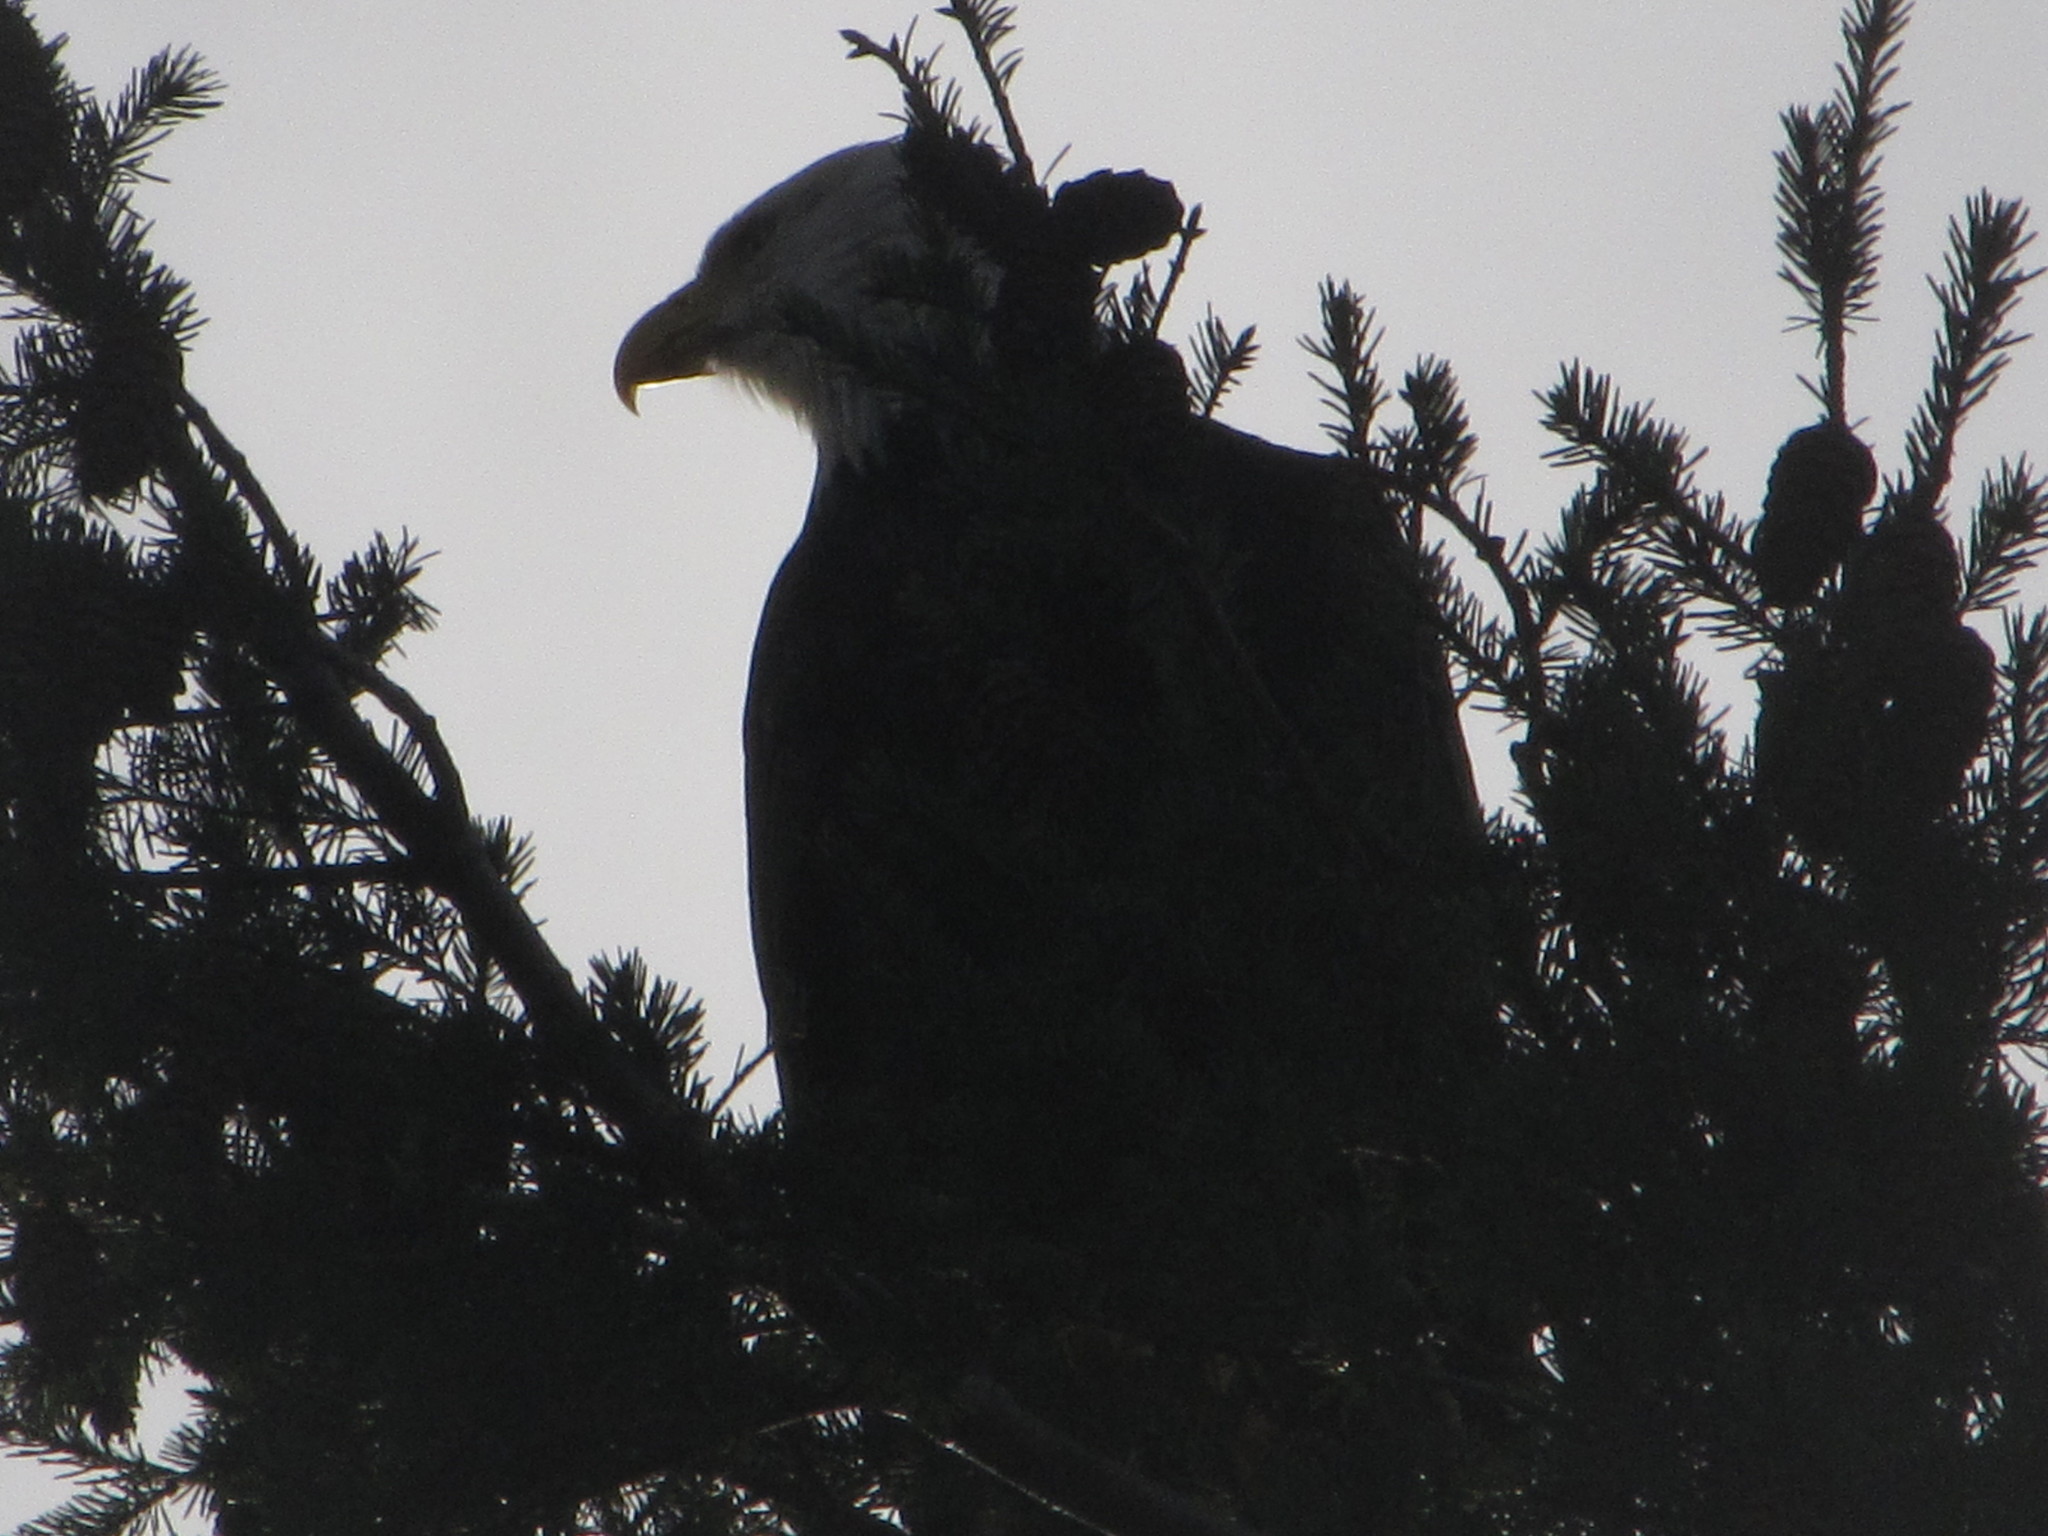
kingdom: Animalia
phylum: Chordata
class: Aves
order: Accipitriformes
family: Accipitridae
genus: Haliaeetus
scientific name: Haliaeetus leucocephalus
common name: Bald eagle
